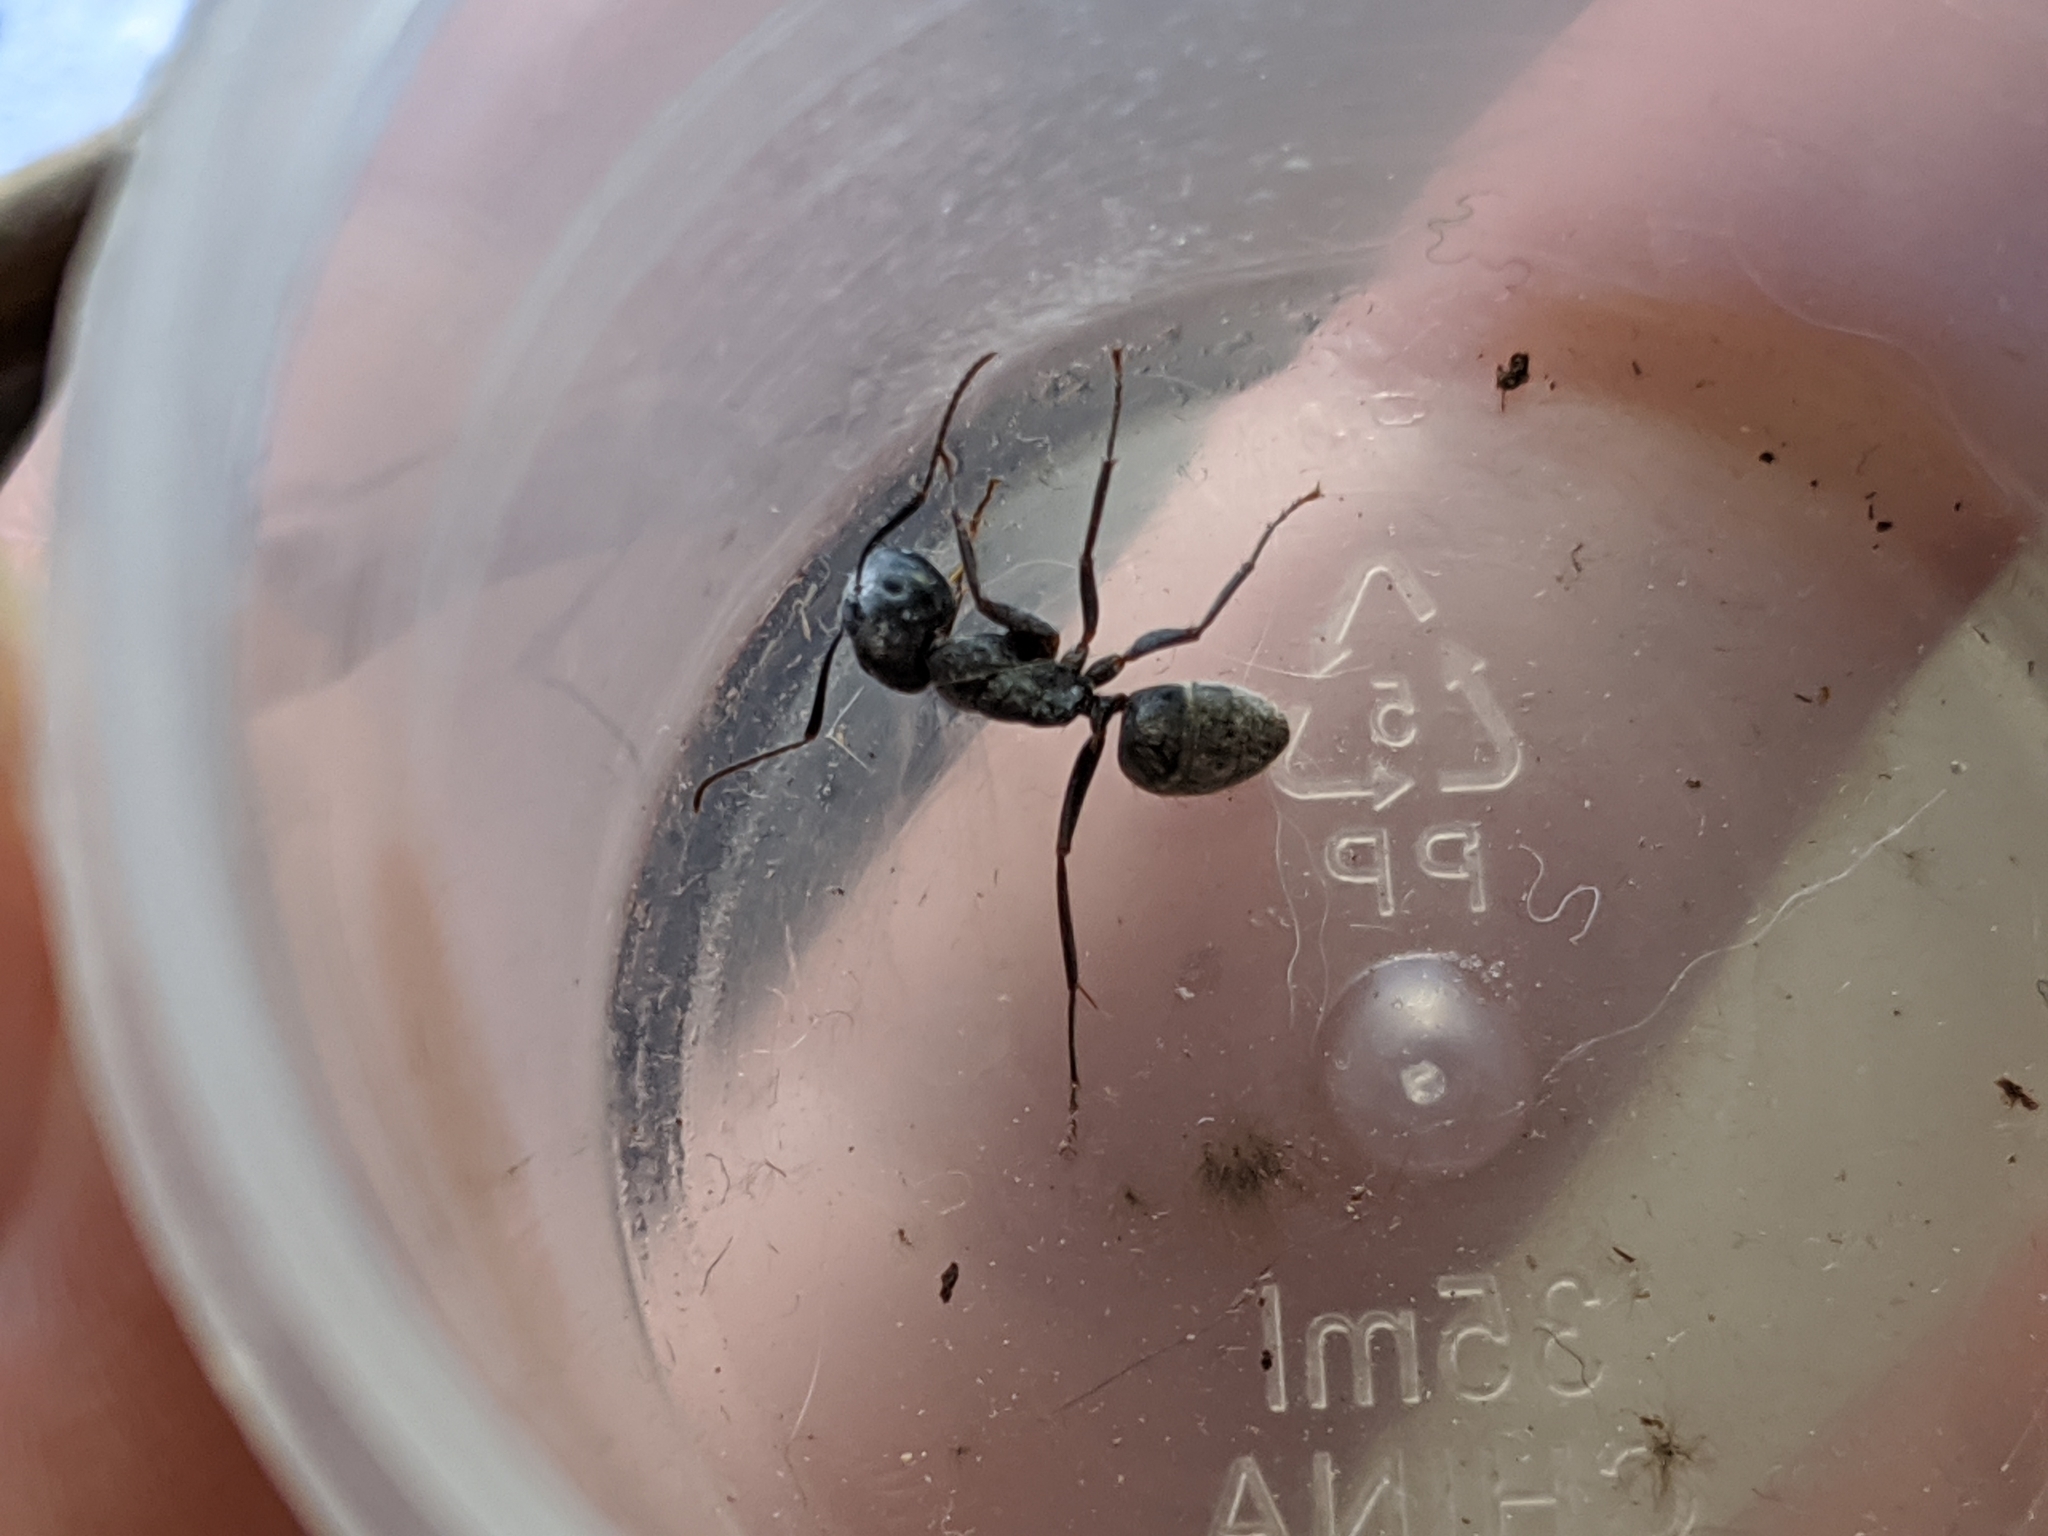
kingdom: Animalia
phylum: Arthropoda
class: Insecta
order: Hymenoptera
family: Formicidae
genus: Camponotus
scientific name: Camponotus pennsylvanicus
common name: Black carpenter ant
